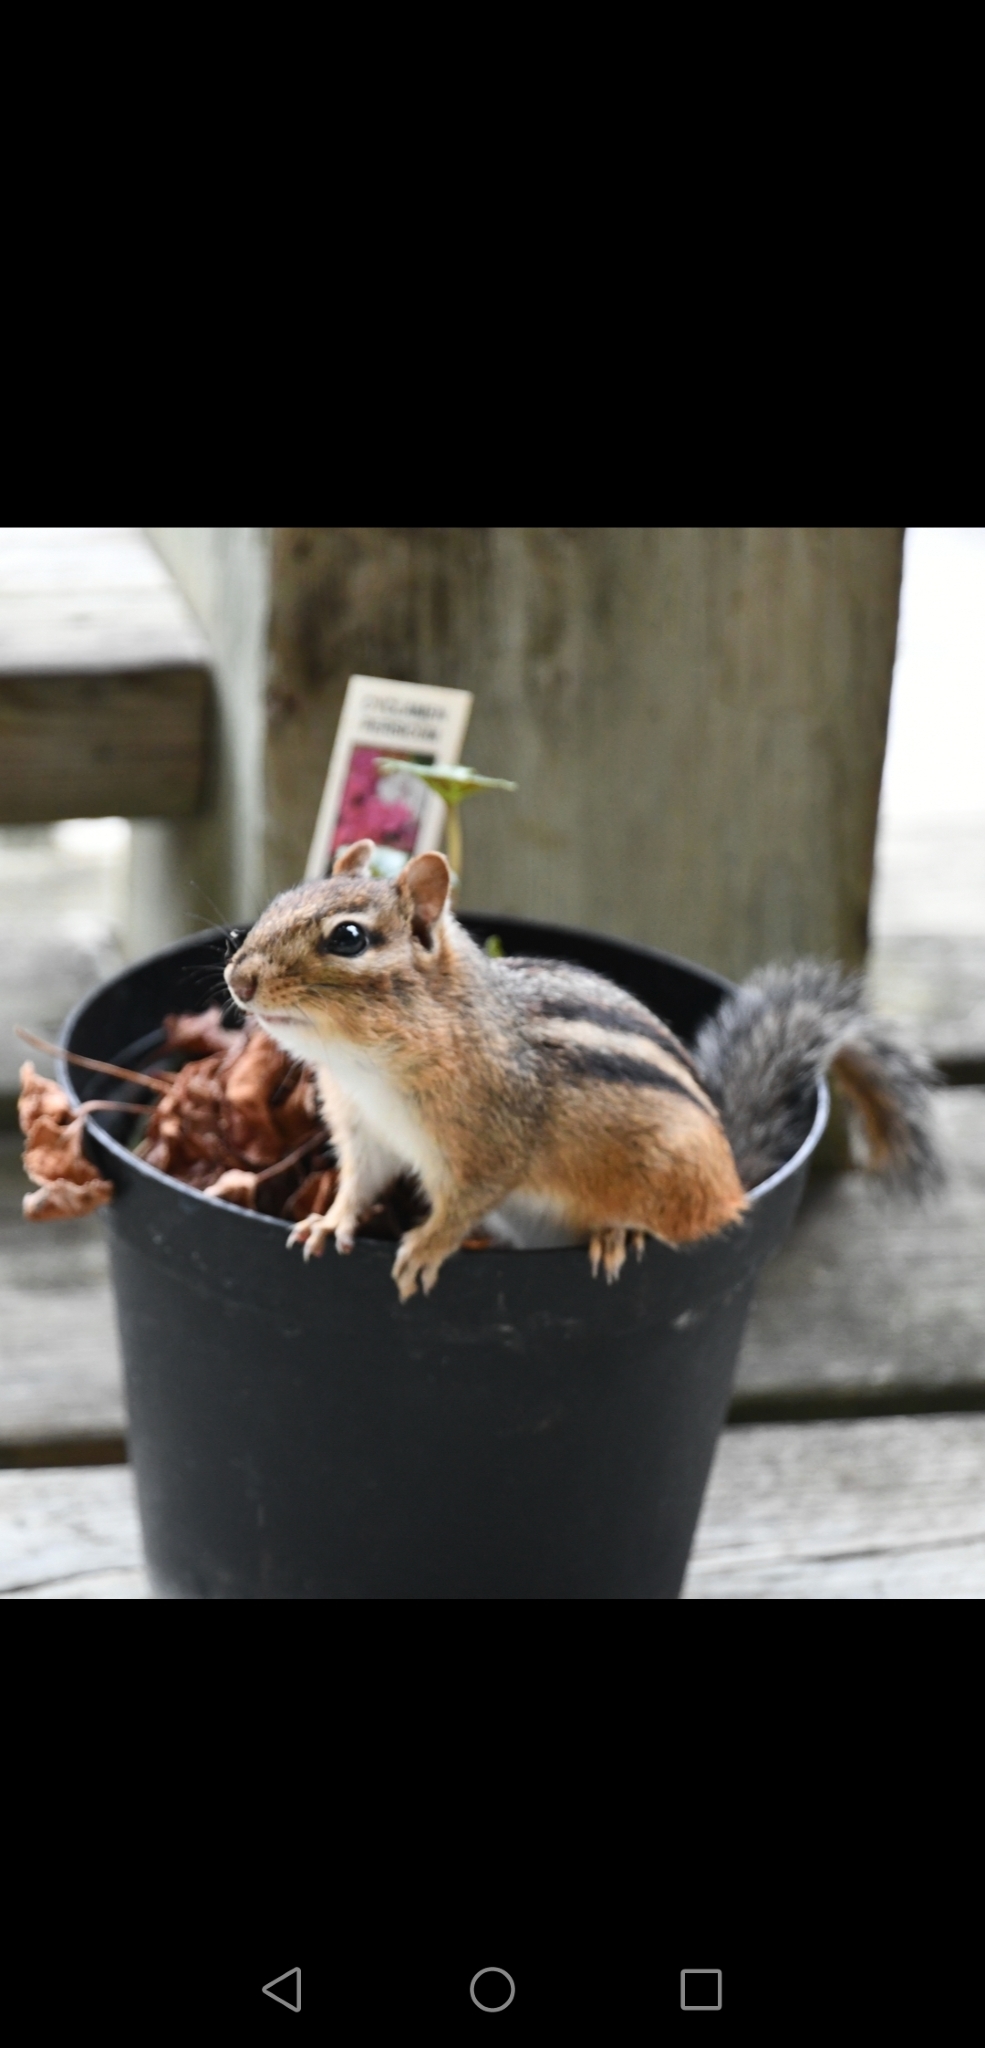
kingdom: Animalia
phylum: Chordata
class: Mammalia
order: Rodentia
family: Sciuridae
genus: Tamias
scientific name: Tamias striatus
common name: Eastern chipmunk
